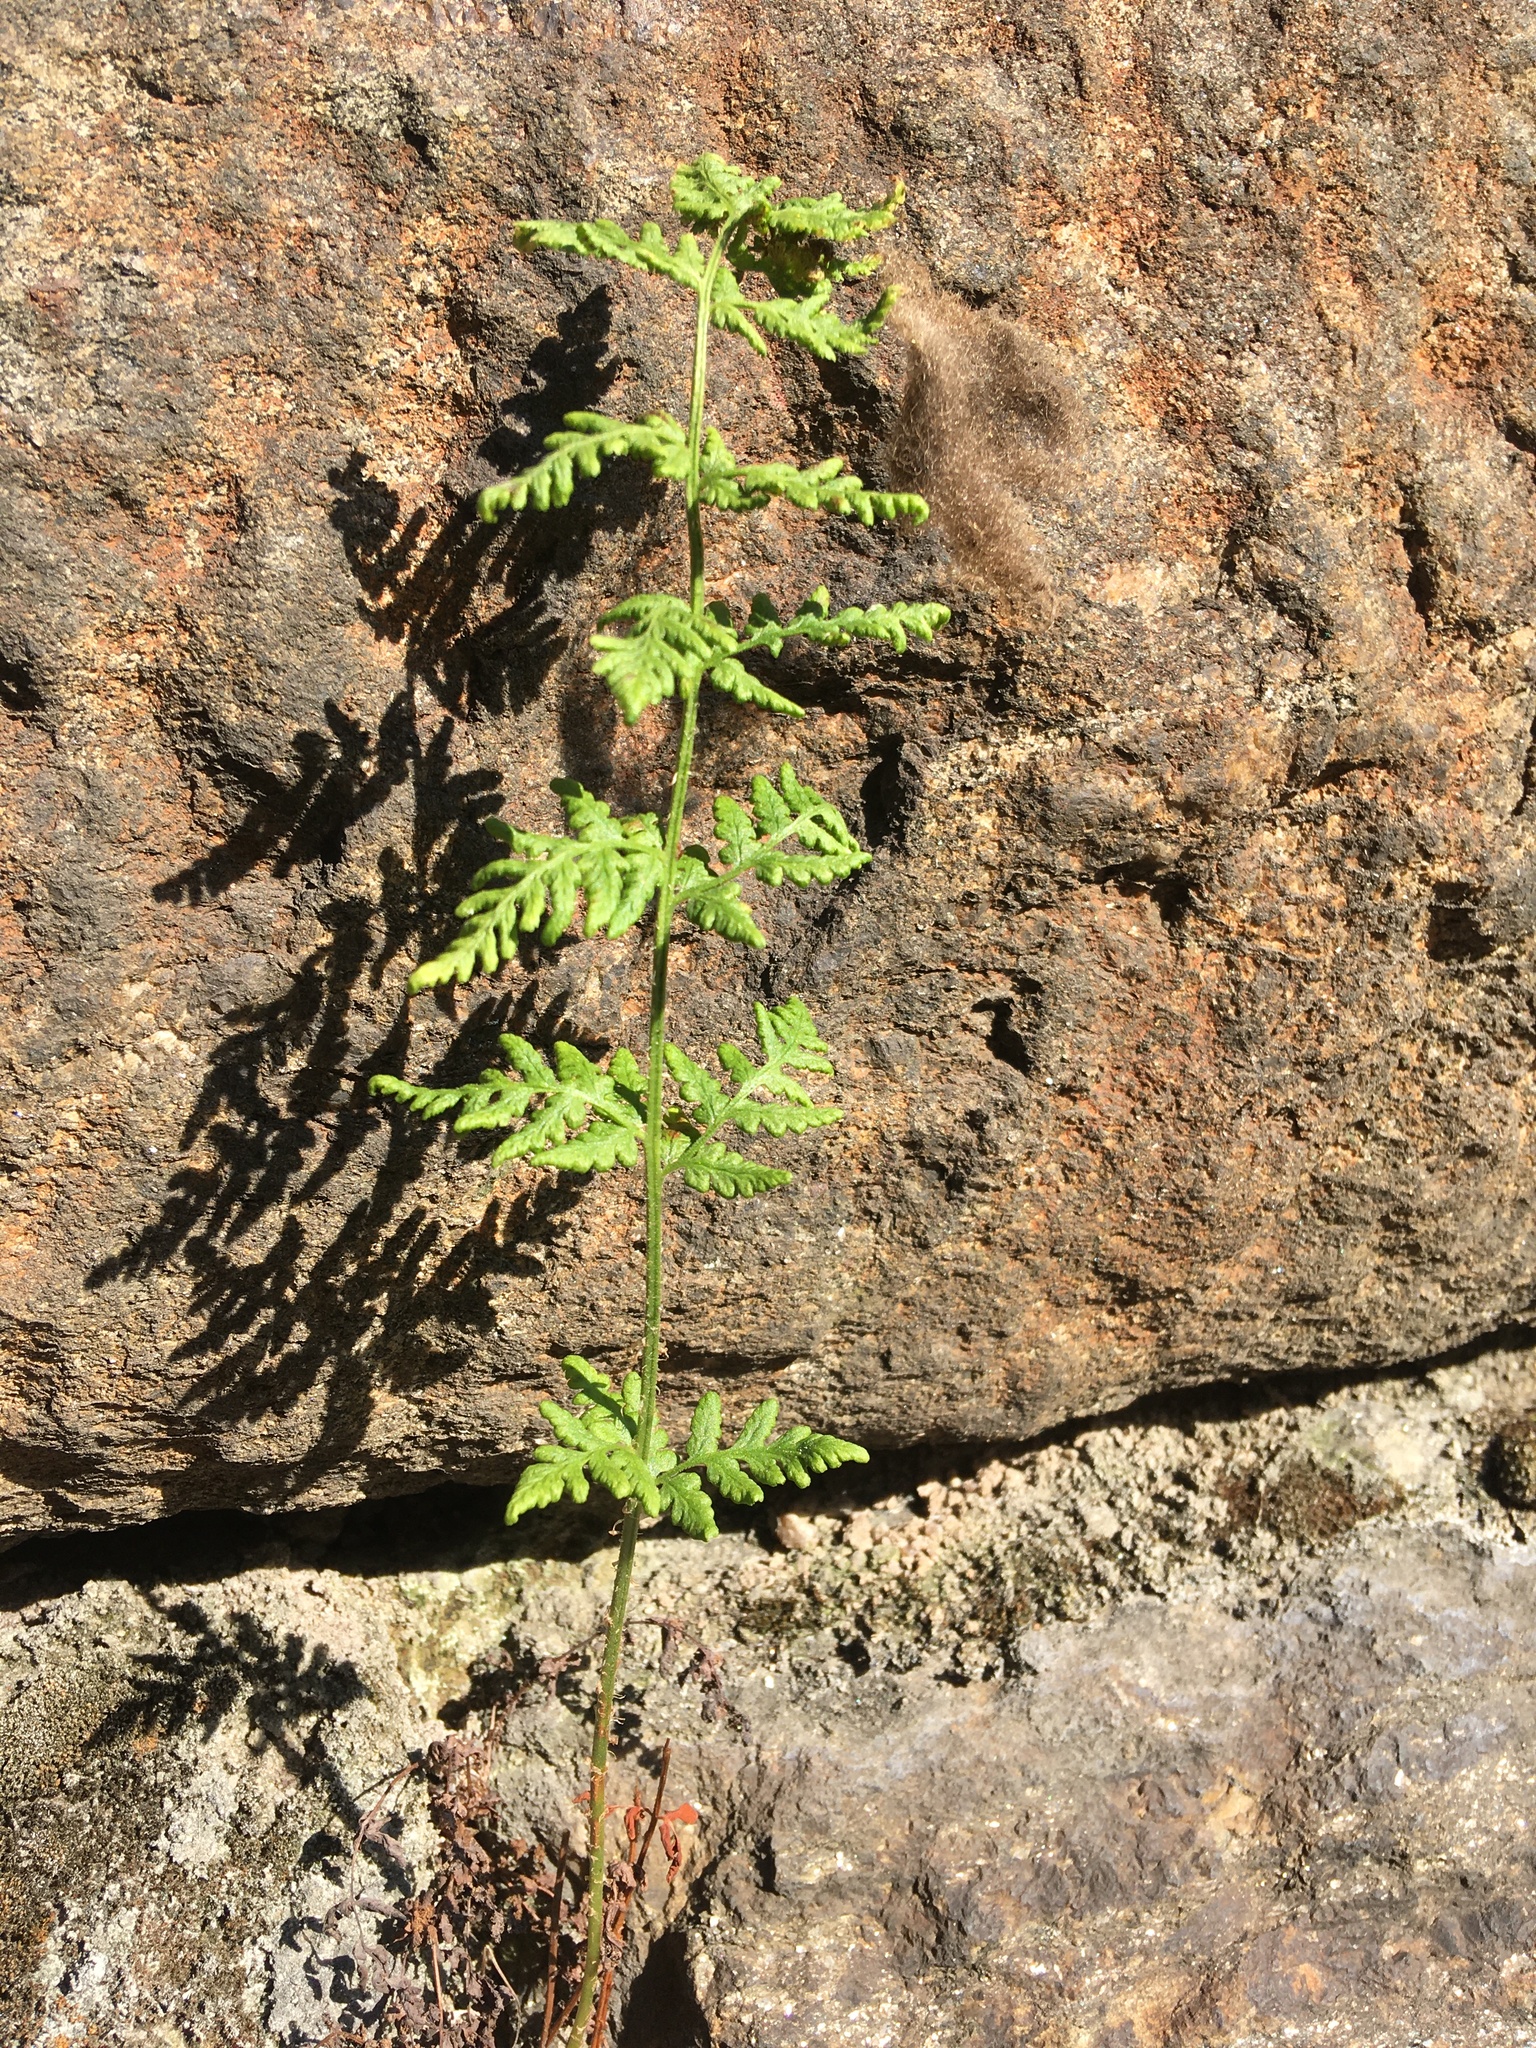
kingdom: Plantae
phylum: Tracheophyta
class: Polypodiopsida
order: Polypodiales
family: Woodsiaceae
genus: Physematium
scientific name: Physematium obtusum
